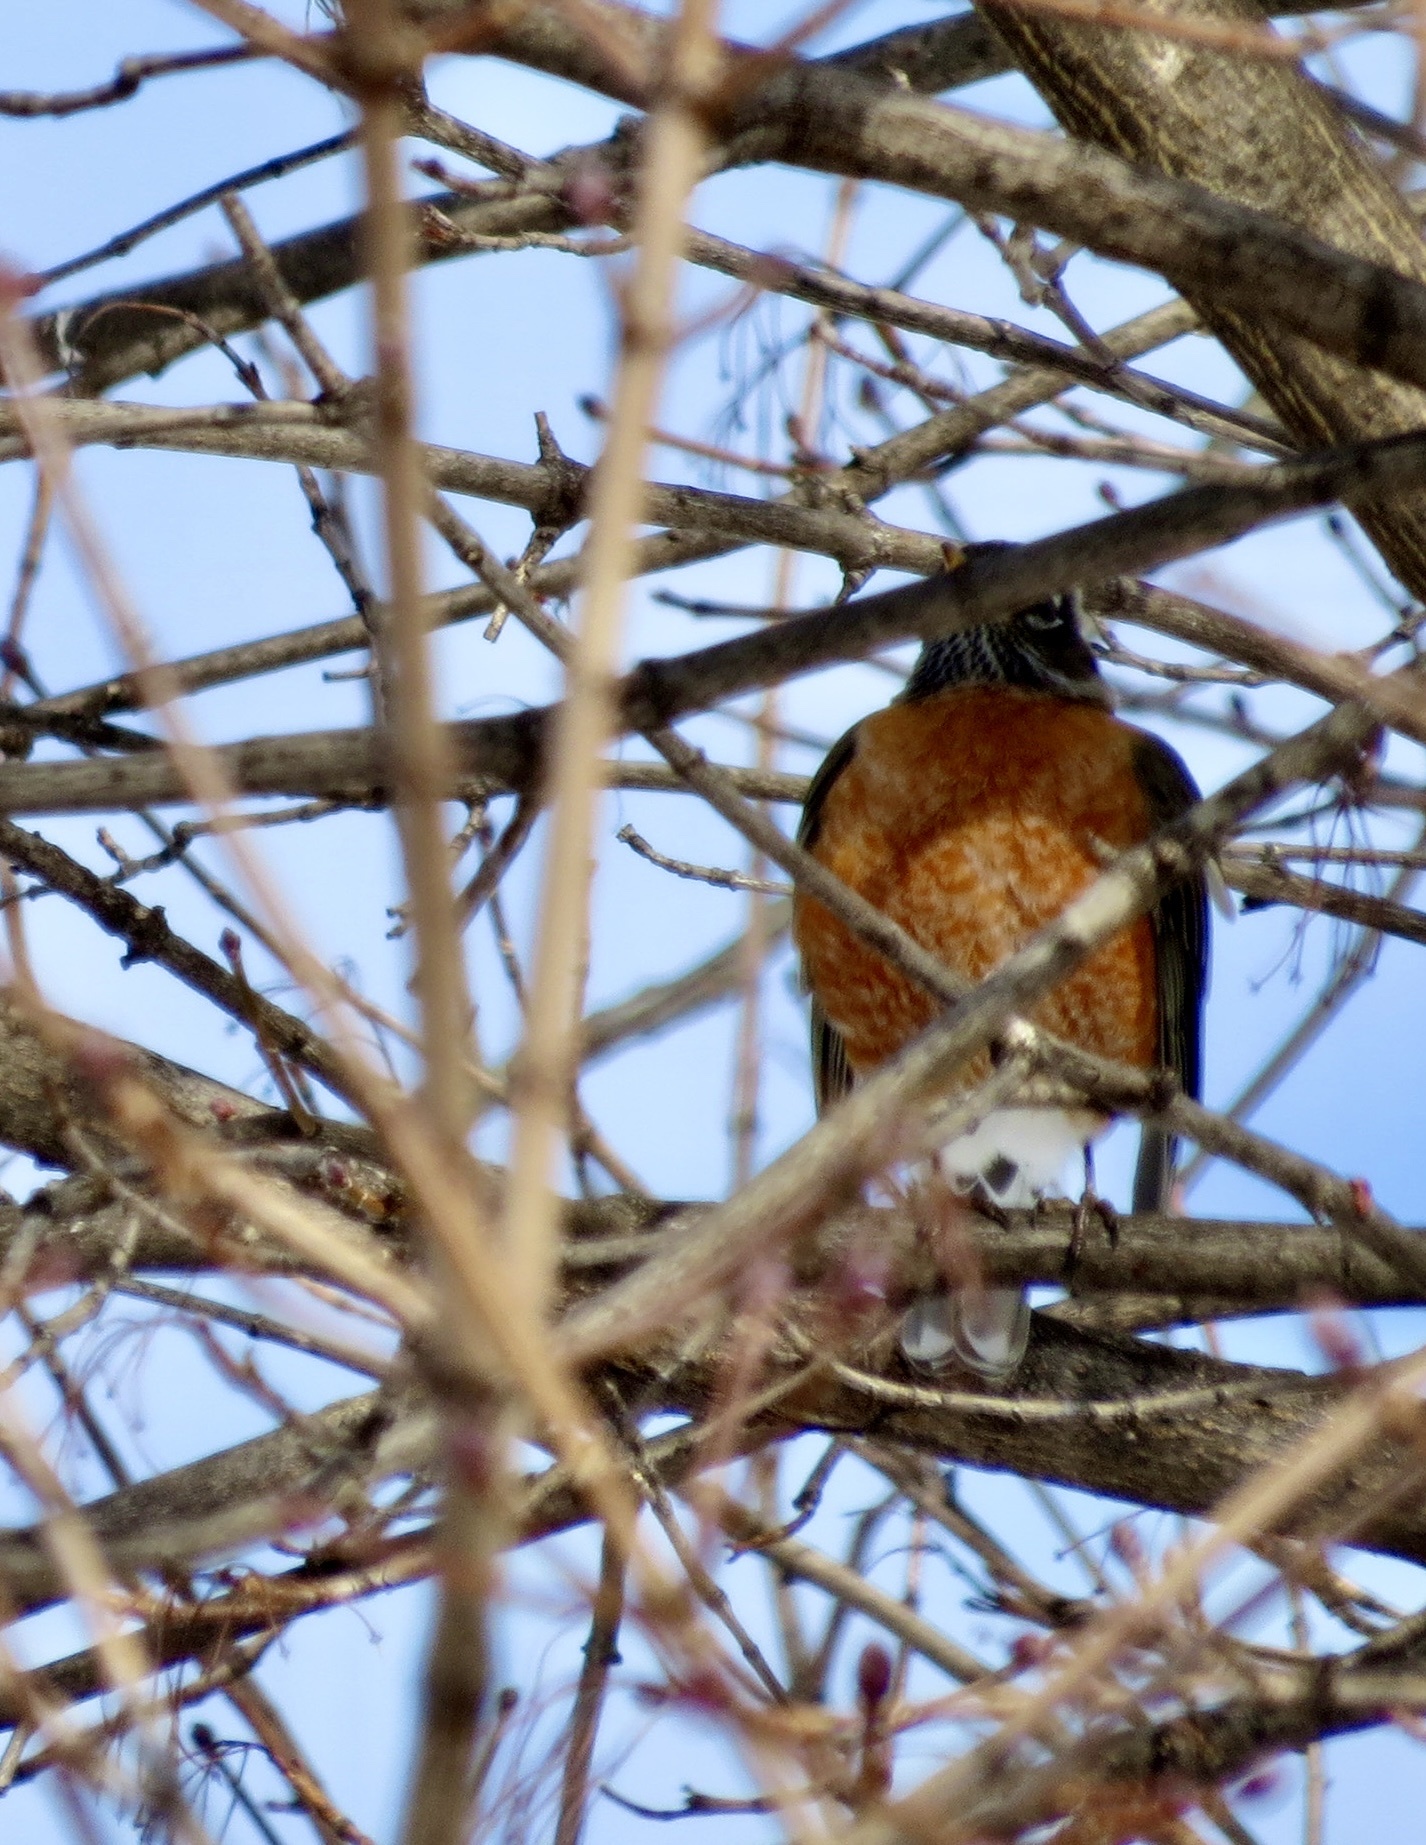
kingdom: Animalia
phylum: Chordata
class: Aves
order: Passeriformes
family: Turdidae
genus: Turdus
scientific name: Turdus migratorius
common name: American robin
